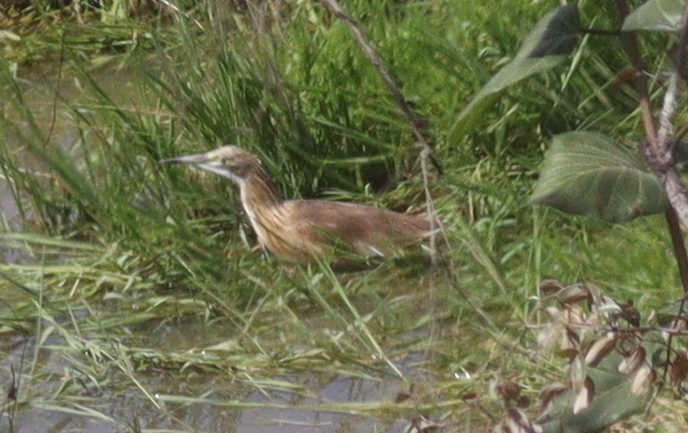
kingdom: Animalia
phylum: Chordata
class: Aves
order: Pelecaniformes
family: Ardeidae
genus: Ardeola
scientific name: Ardeola ralloides
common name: Squacco heron
